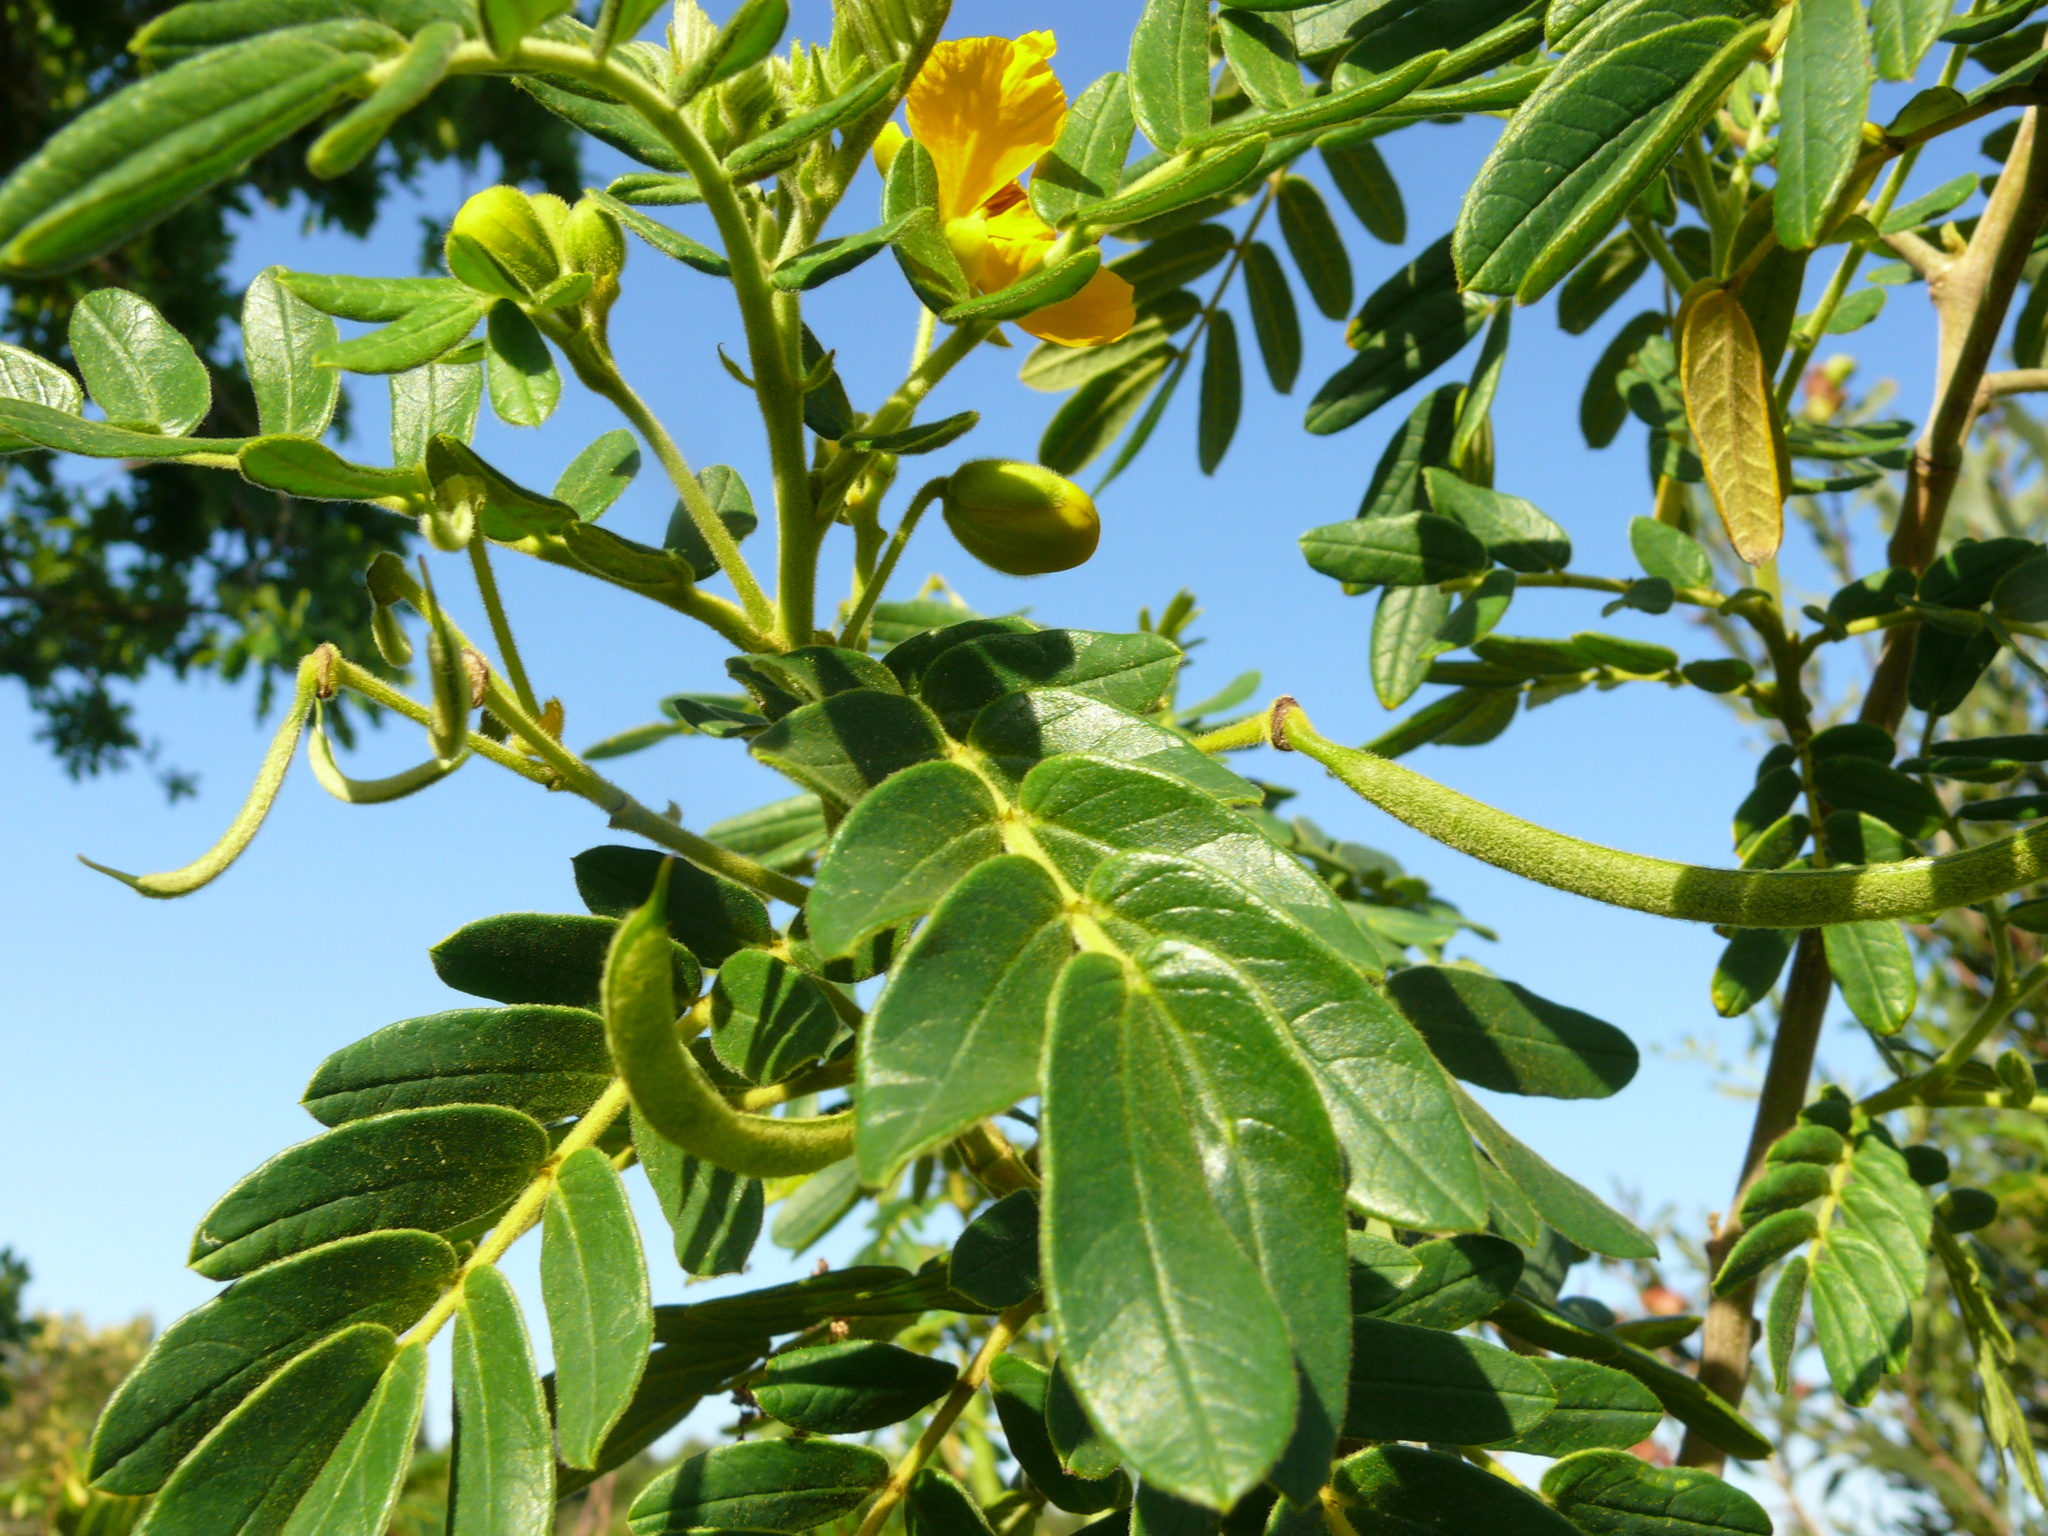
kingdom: Plantae
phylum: Tracheophyta
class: Magnoliopsida
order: Fabales
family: Fabaceae
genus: Senna
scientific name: Senna multiglandulosa
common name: Glandular senna
